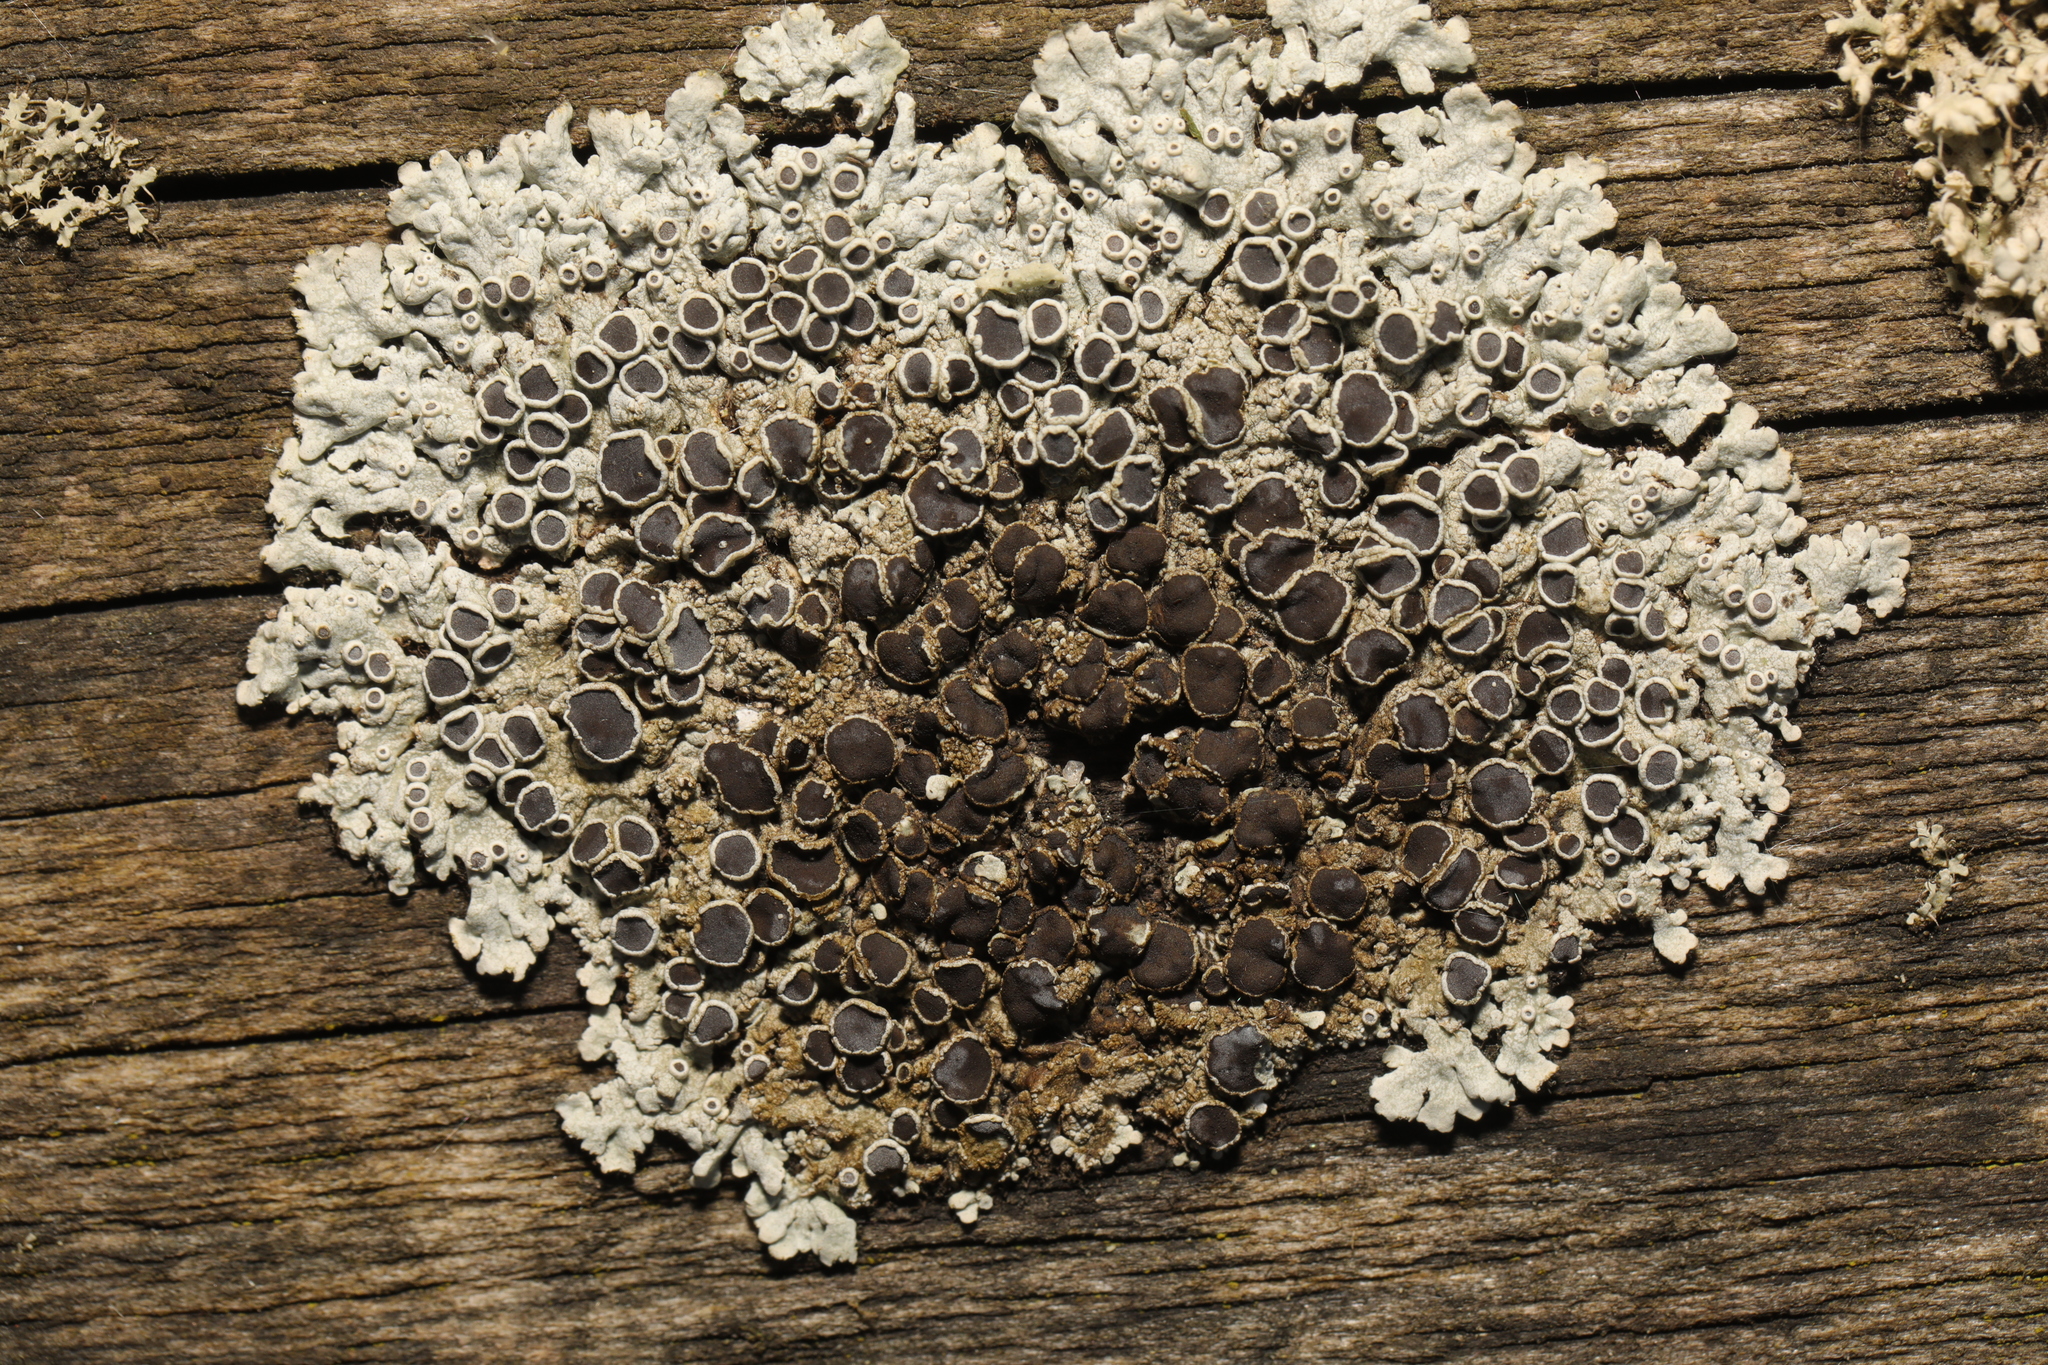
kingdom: Fungi
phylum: Ascomycota
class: Lecanoromycetes
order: Caliciales
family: Physciaceae
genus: Physcia
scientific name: Physcia aipolia
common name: Hoary rosette lichen
